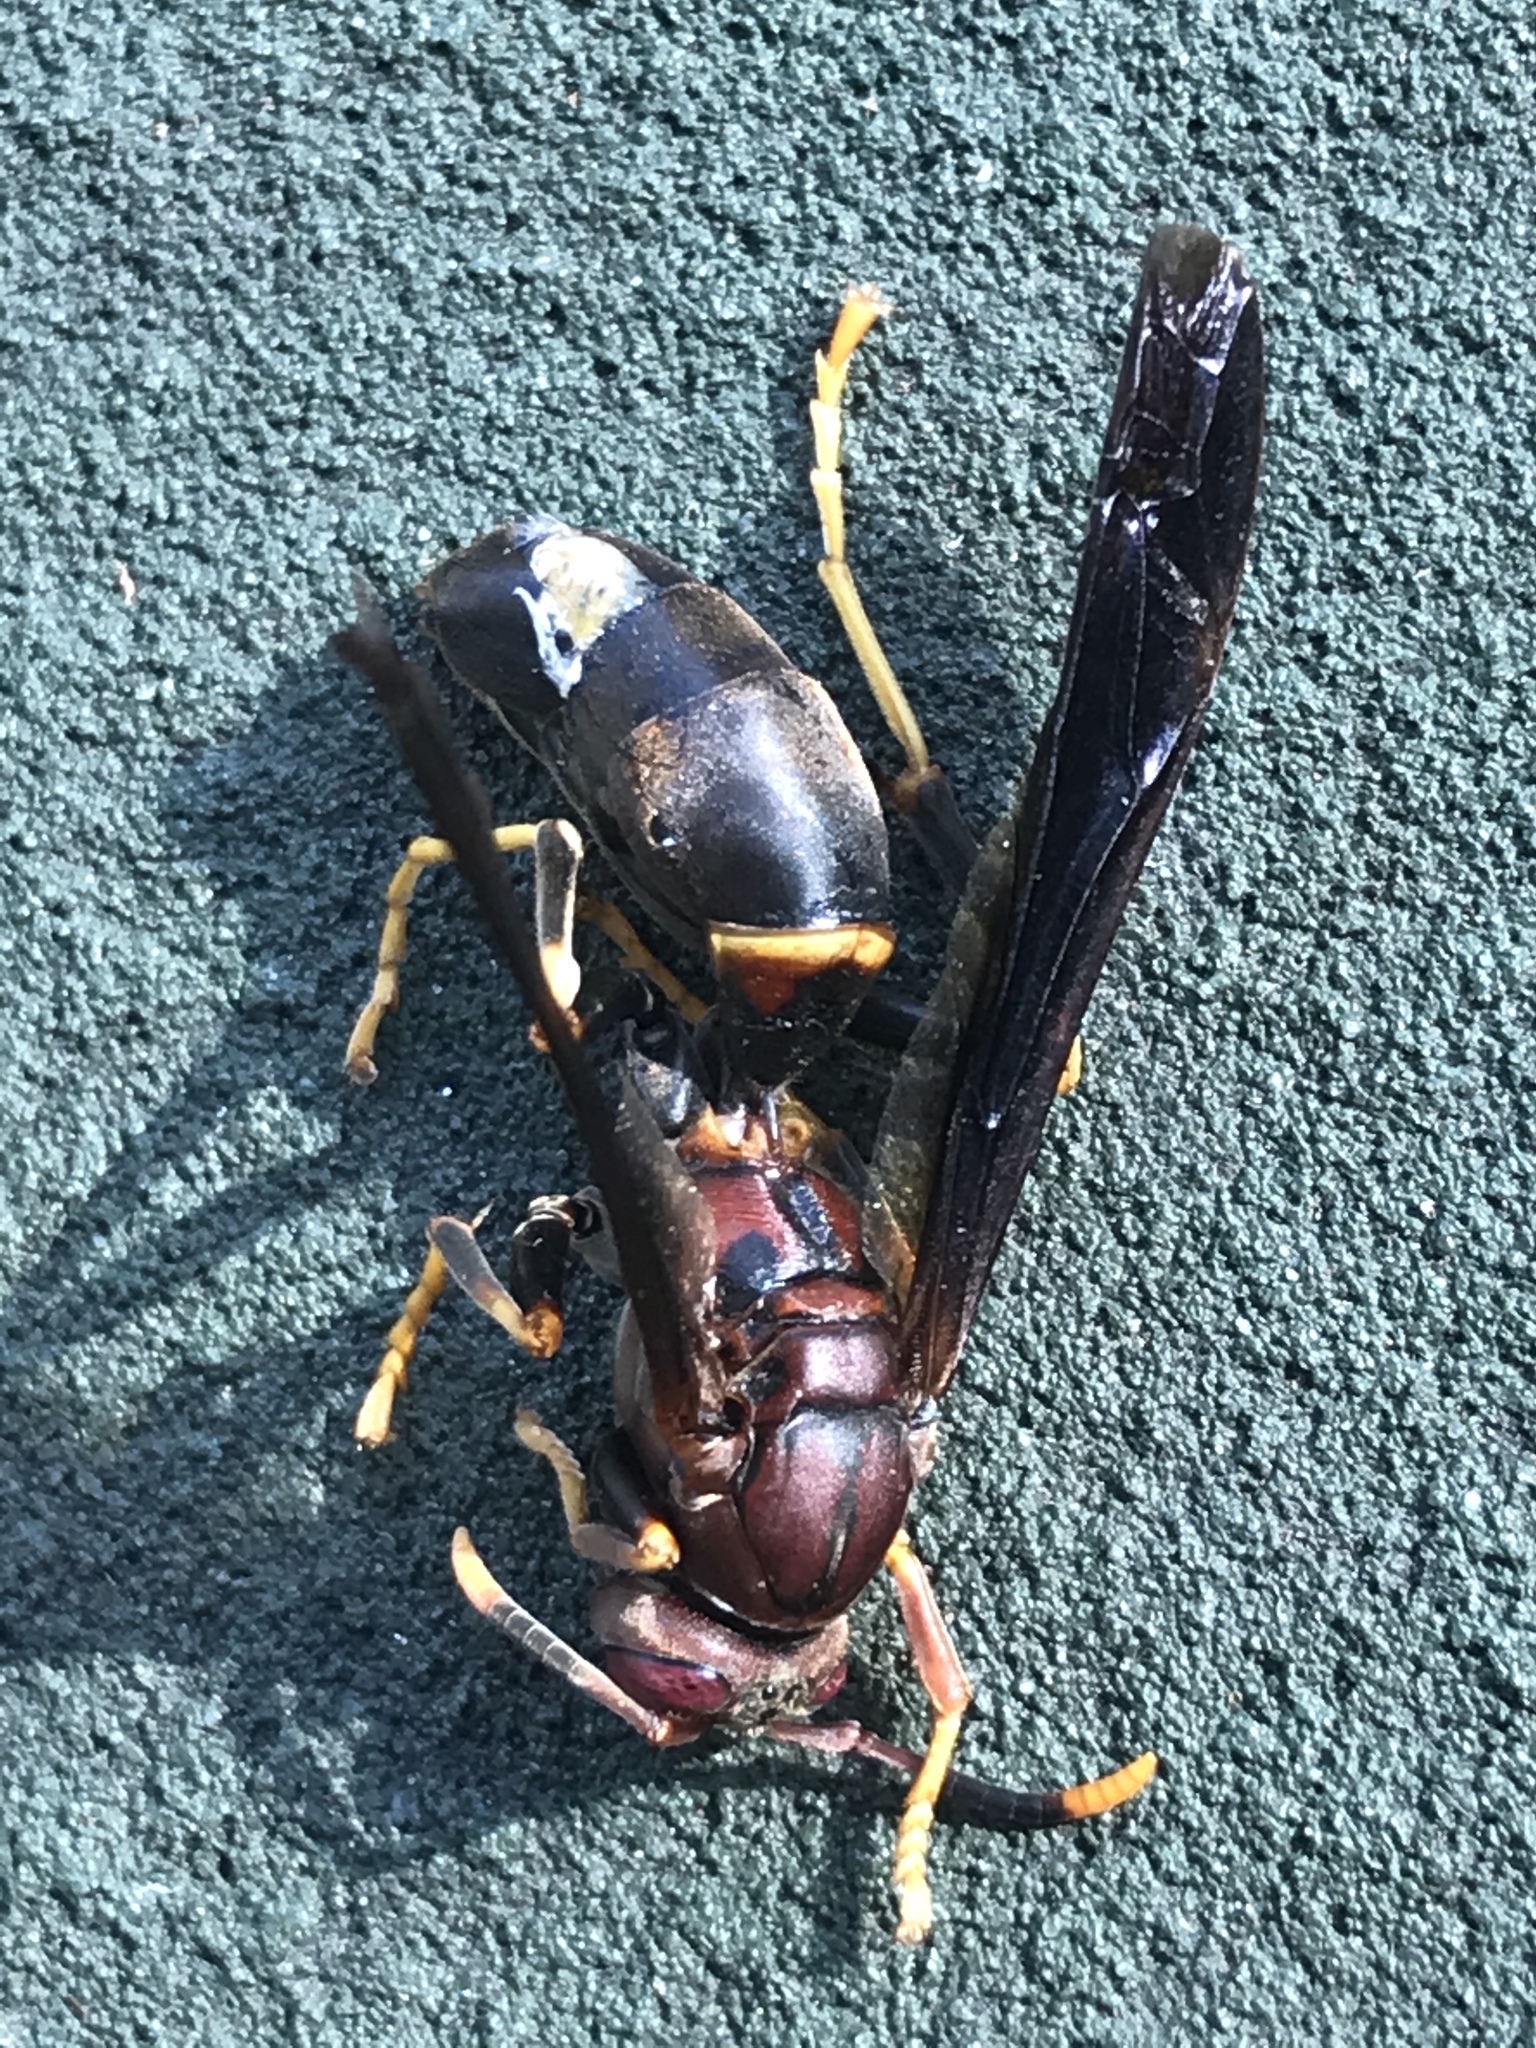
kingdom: Animalia
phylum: Arthropoda
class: Insecta
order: Hymenoptera
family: Eumenidae
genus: Polistes
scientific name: Polistes annularis
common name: Ringed paper wasp
